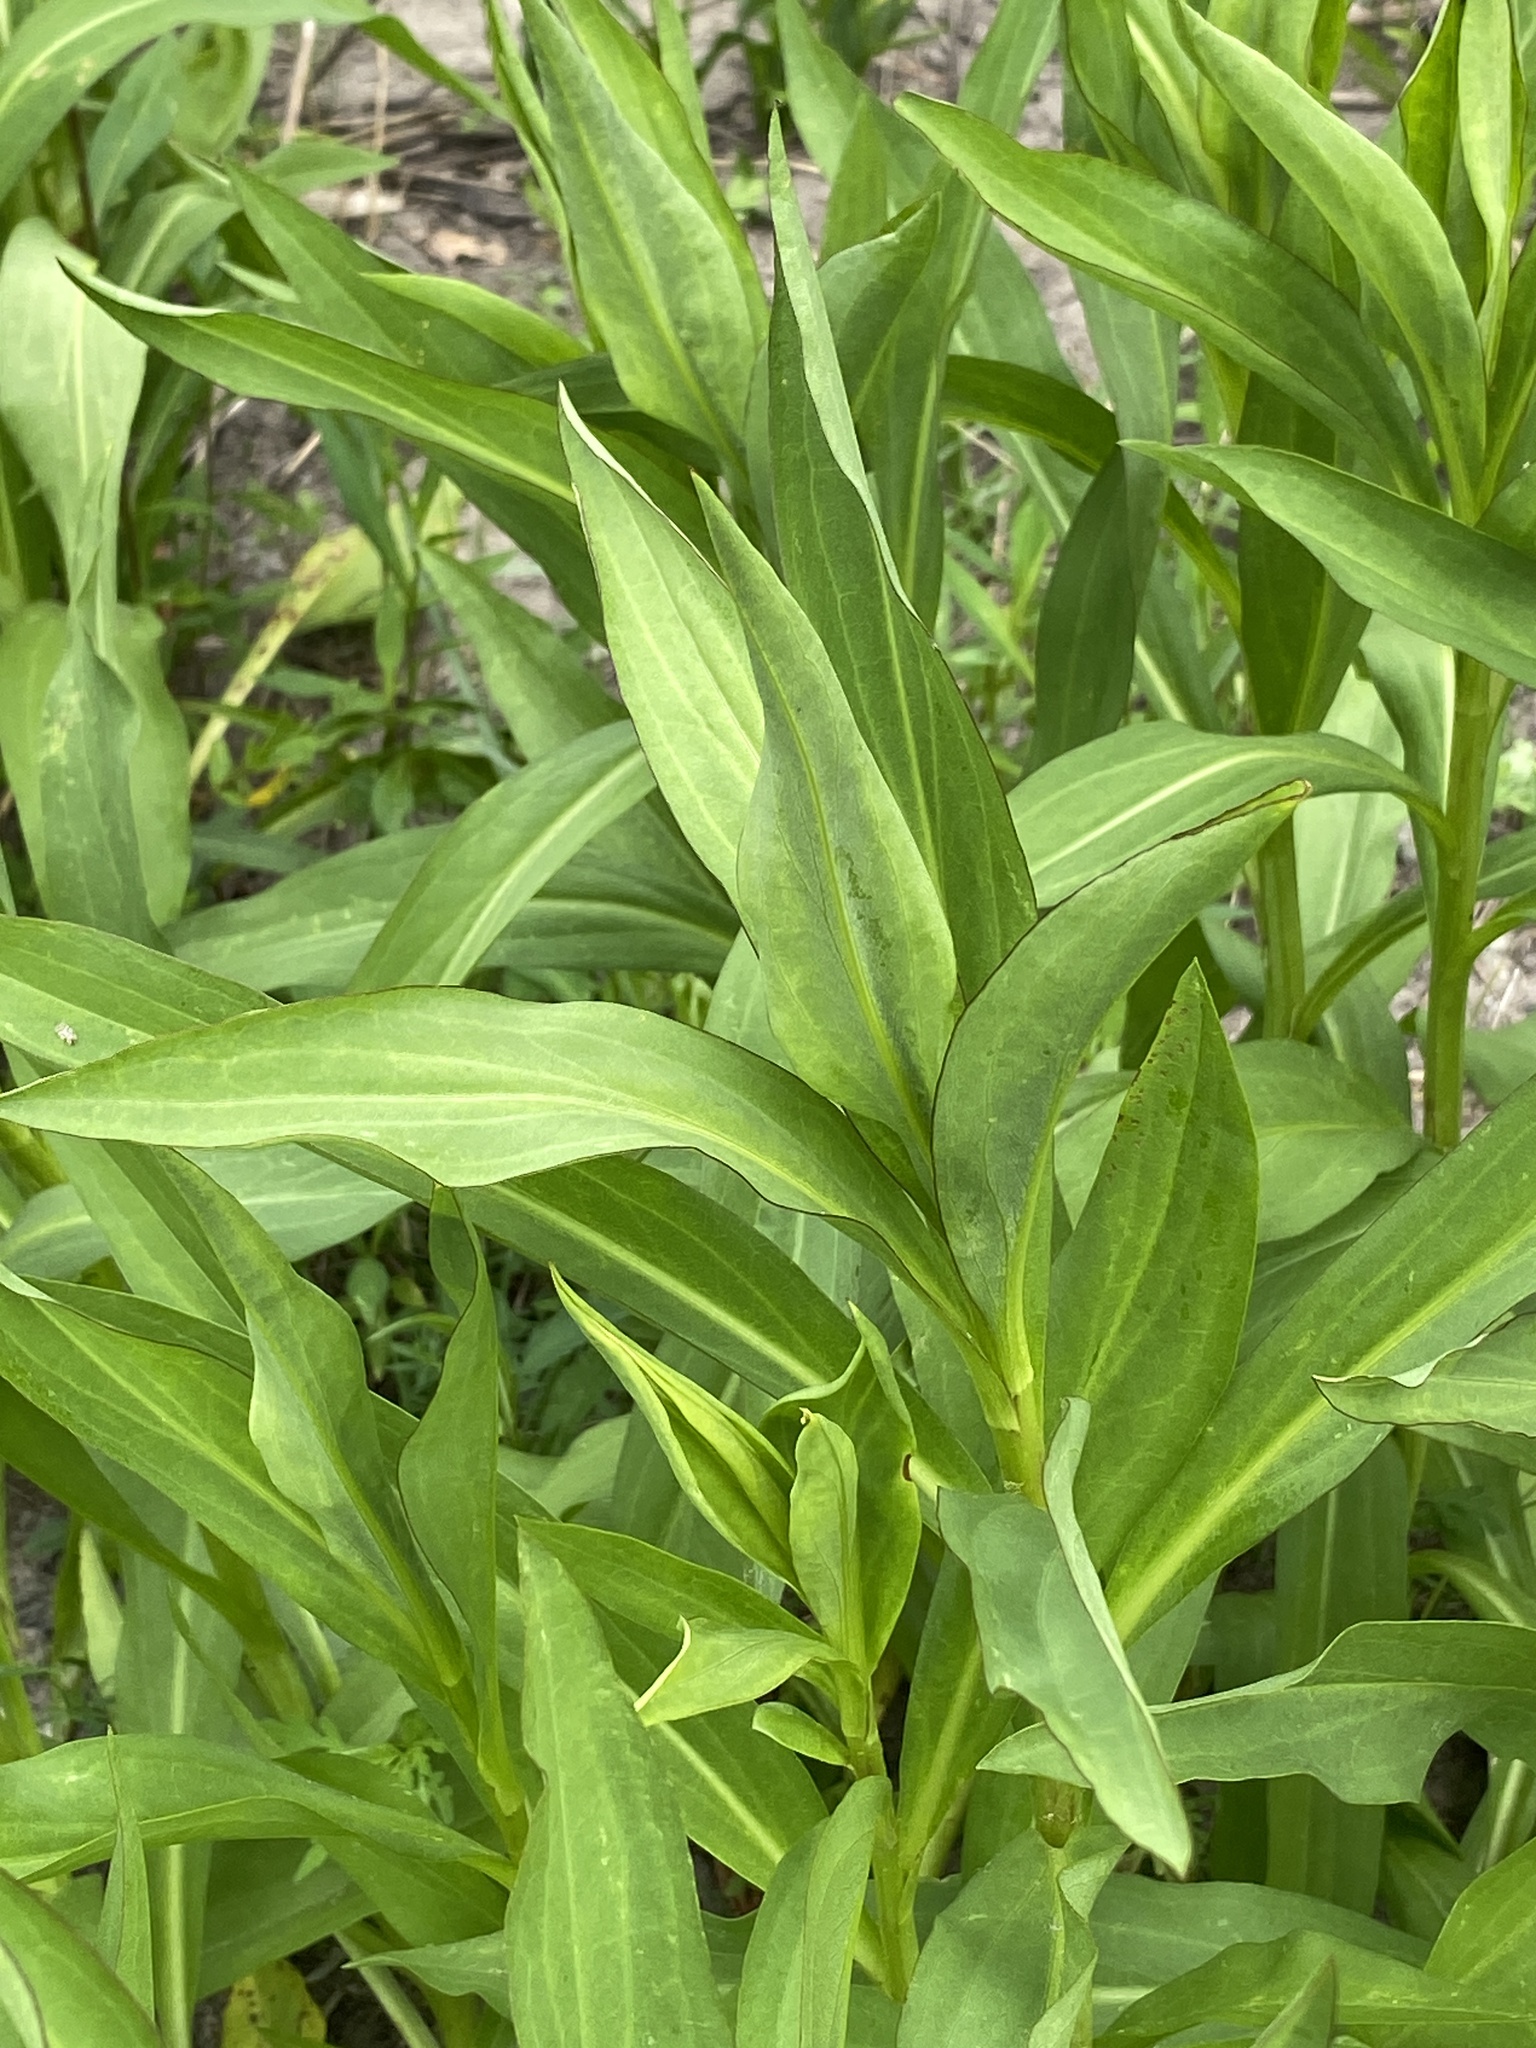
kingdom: Plantae
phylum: Tracheophyta
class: Magnoliopsida
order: Asterales
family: Asteraceae
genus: Solidago
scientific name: Solidago sempervirens
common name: Salt-marsh goldenrod
